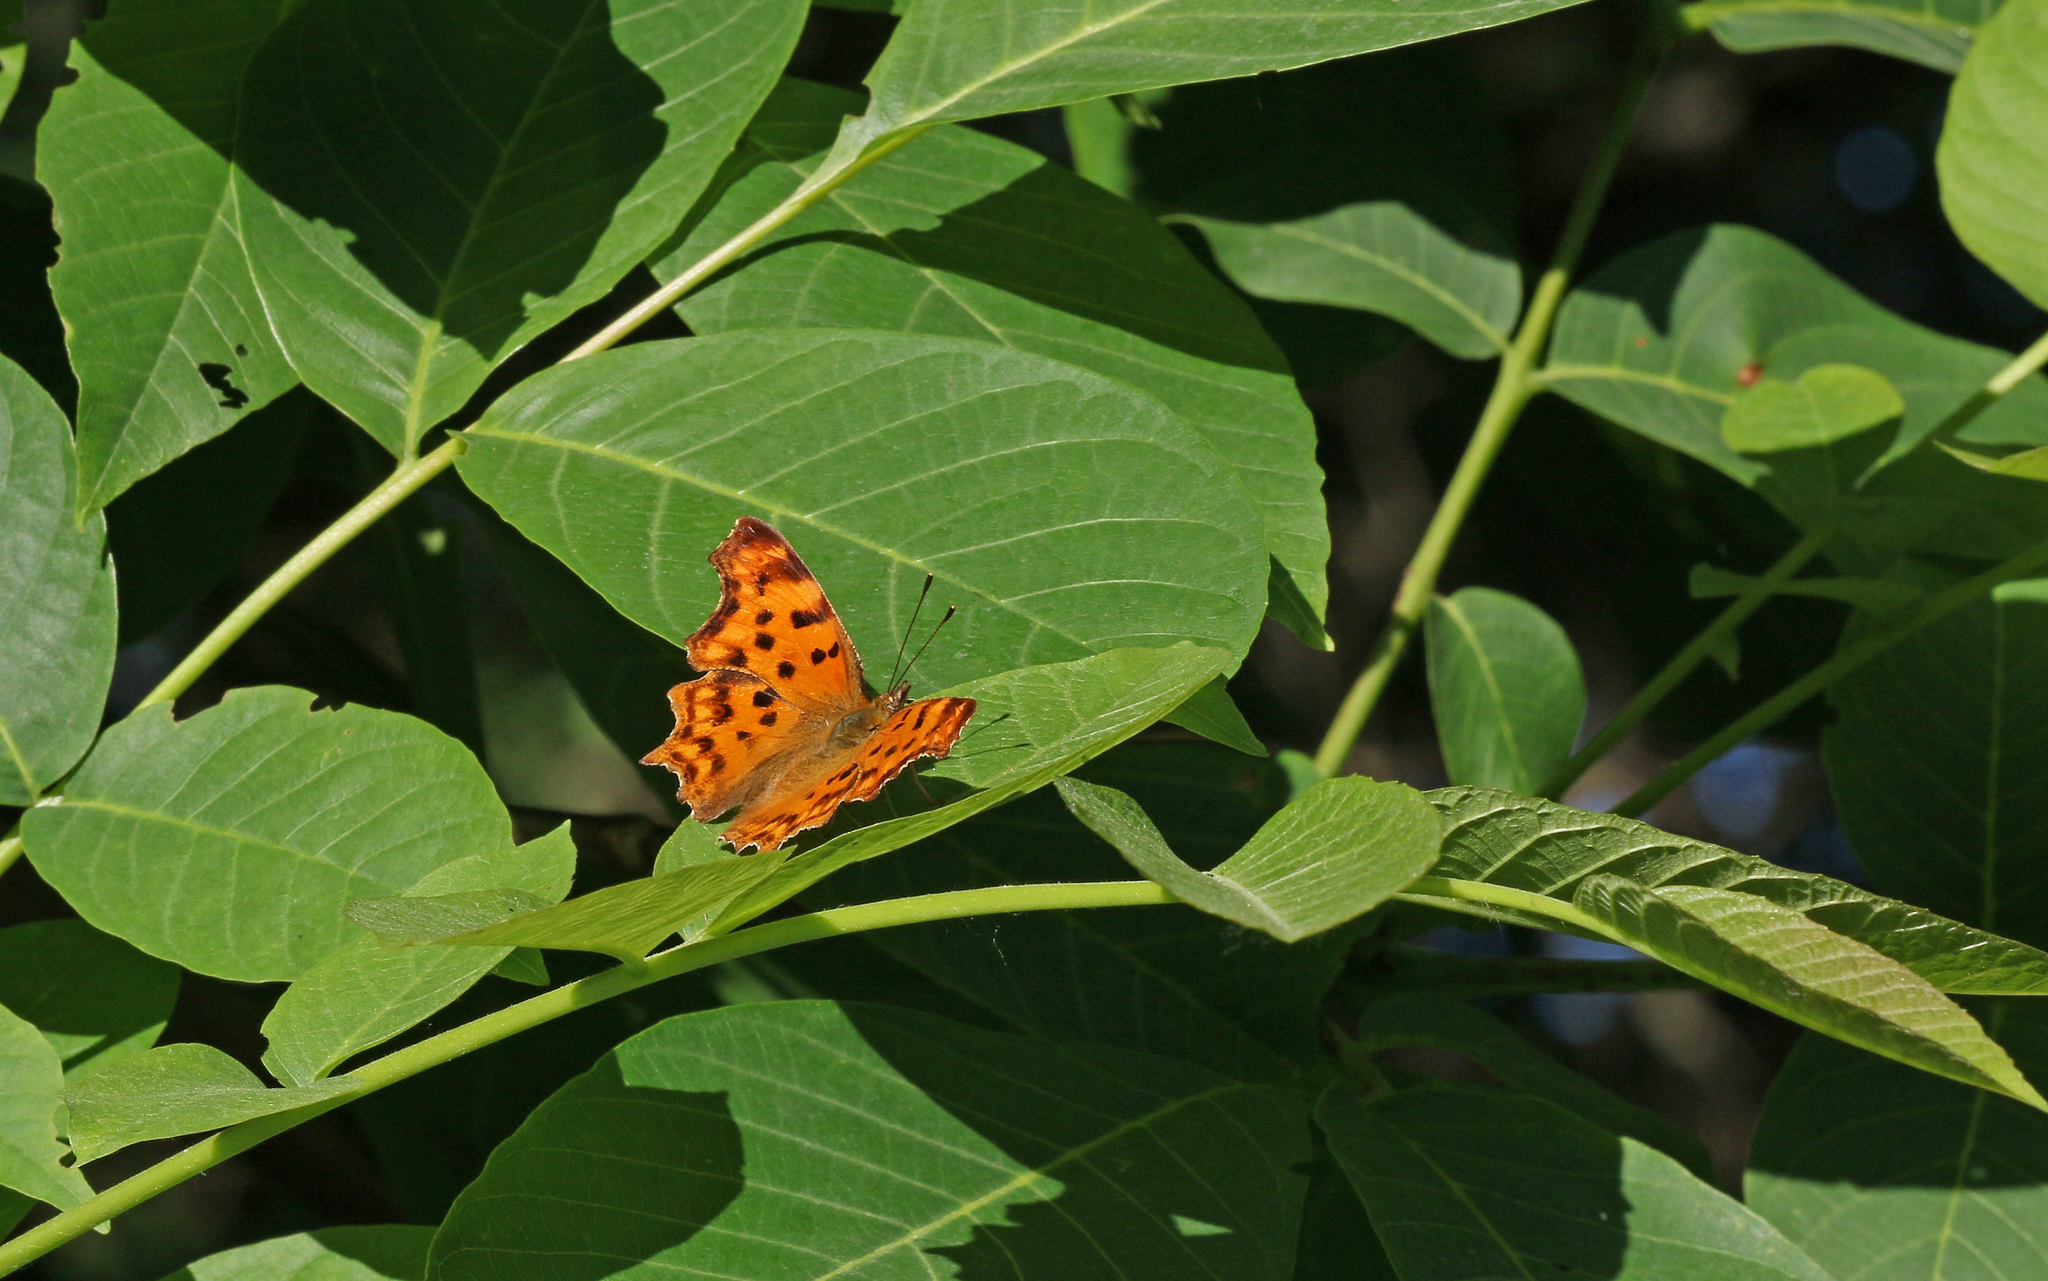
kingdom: Animalia
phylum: Arthropoda
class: Insecta
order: Lepidoptera
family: Nymphalidae
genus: Polygonia
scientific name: Polygonia c-album
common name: Comma
